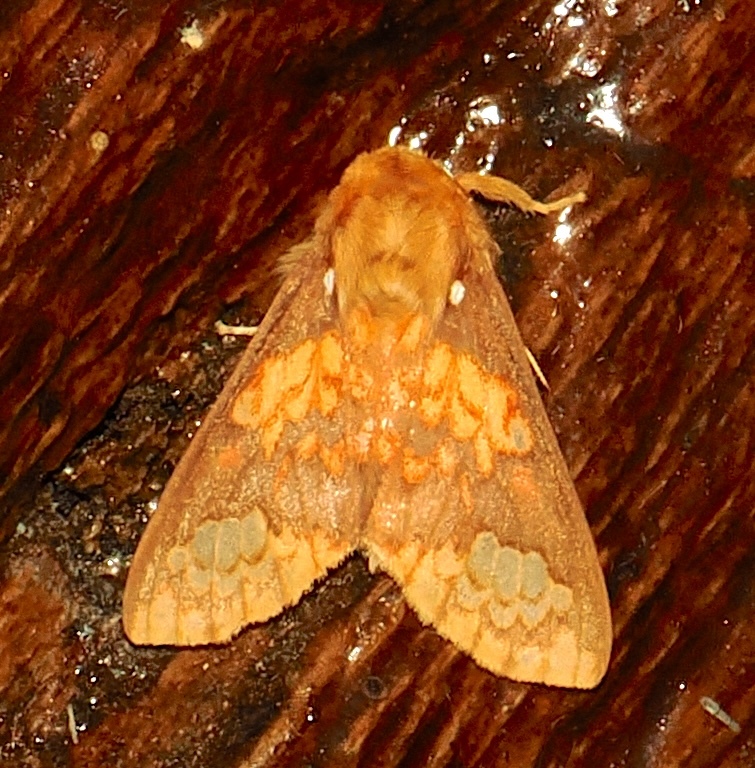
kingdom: Animalia
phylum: Arthropoda
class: Insecta
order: Lepidoptera
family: Erebidae
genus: Echeta
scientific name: Echeta trinotata
